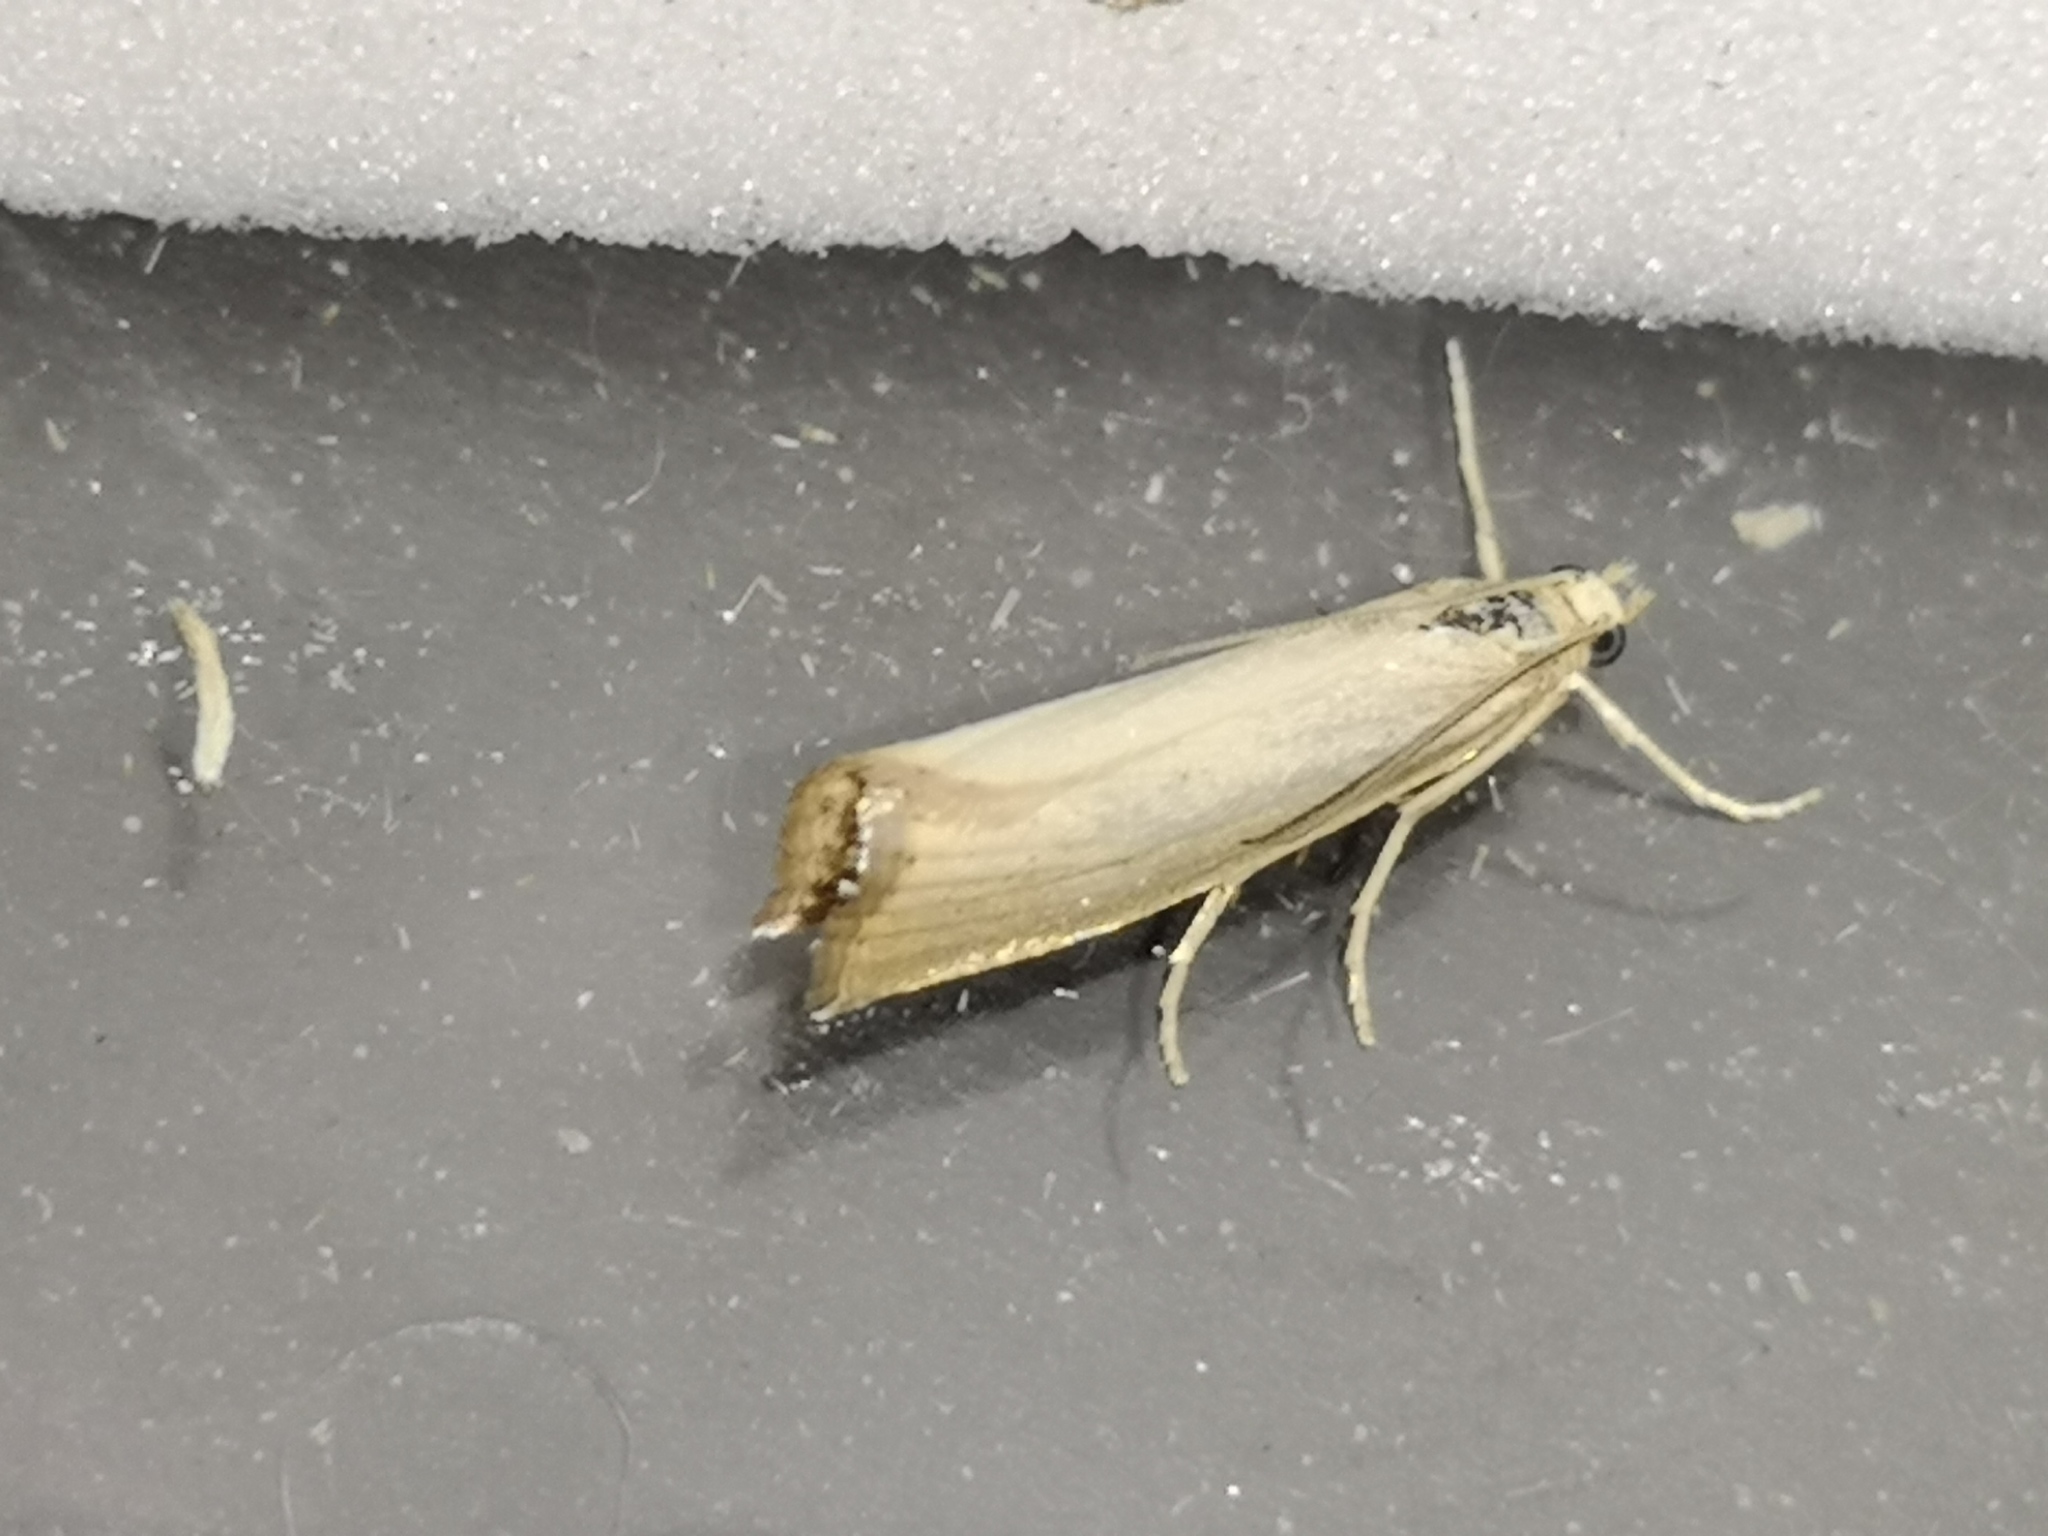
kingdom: Animalia
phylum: Arthropoda
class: Insecta
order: Lepidoptera
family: Crambidae
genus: Agriphila
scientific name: Agriphila straminella
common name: Straw grass-veneer
